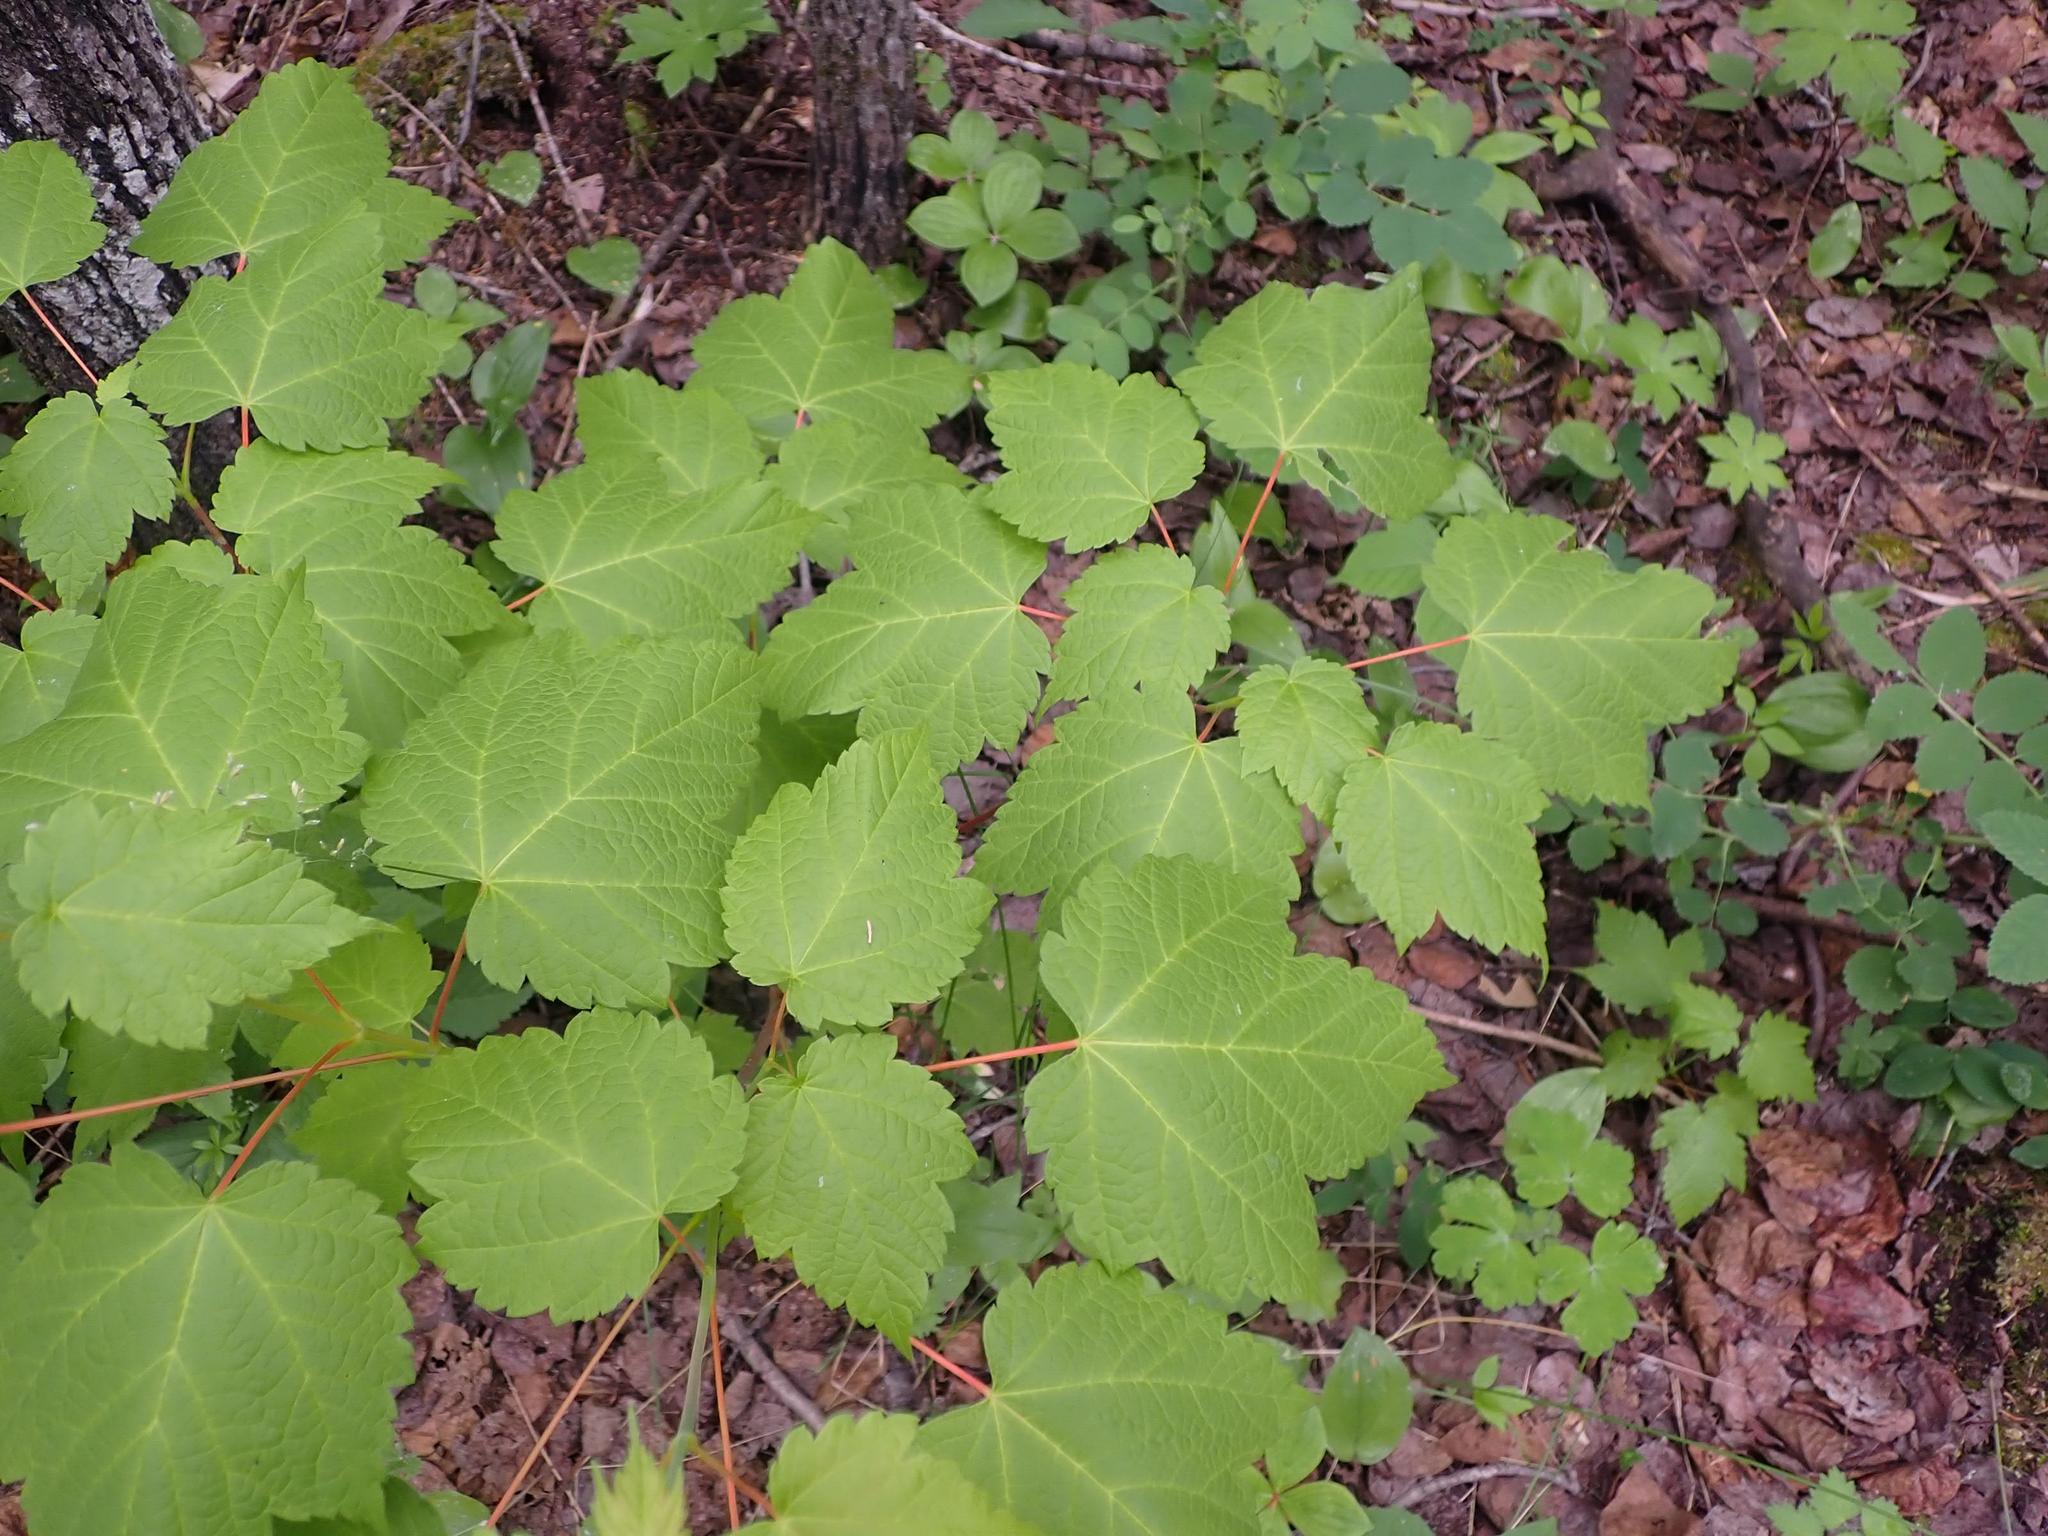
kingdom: Plantae
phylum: Tracheophyta
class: Magnoliopsida
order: Sapindales
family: Sapindaceae
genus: Acer
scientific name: Acer spicatum
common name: Mountain maple
